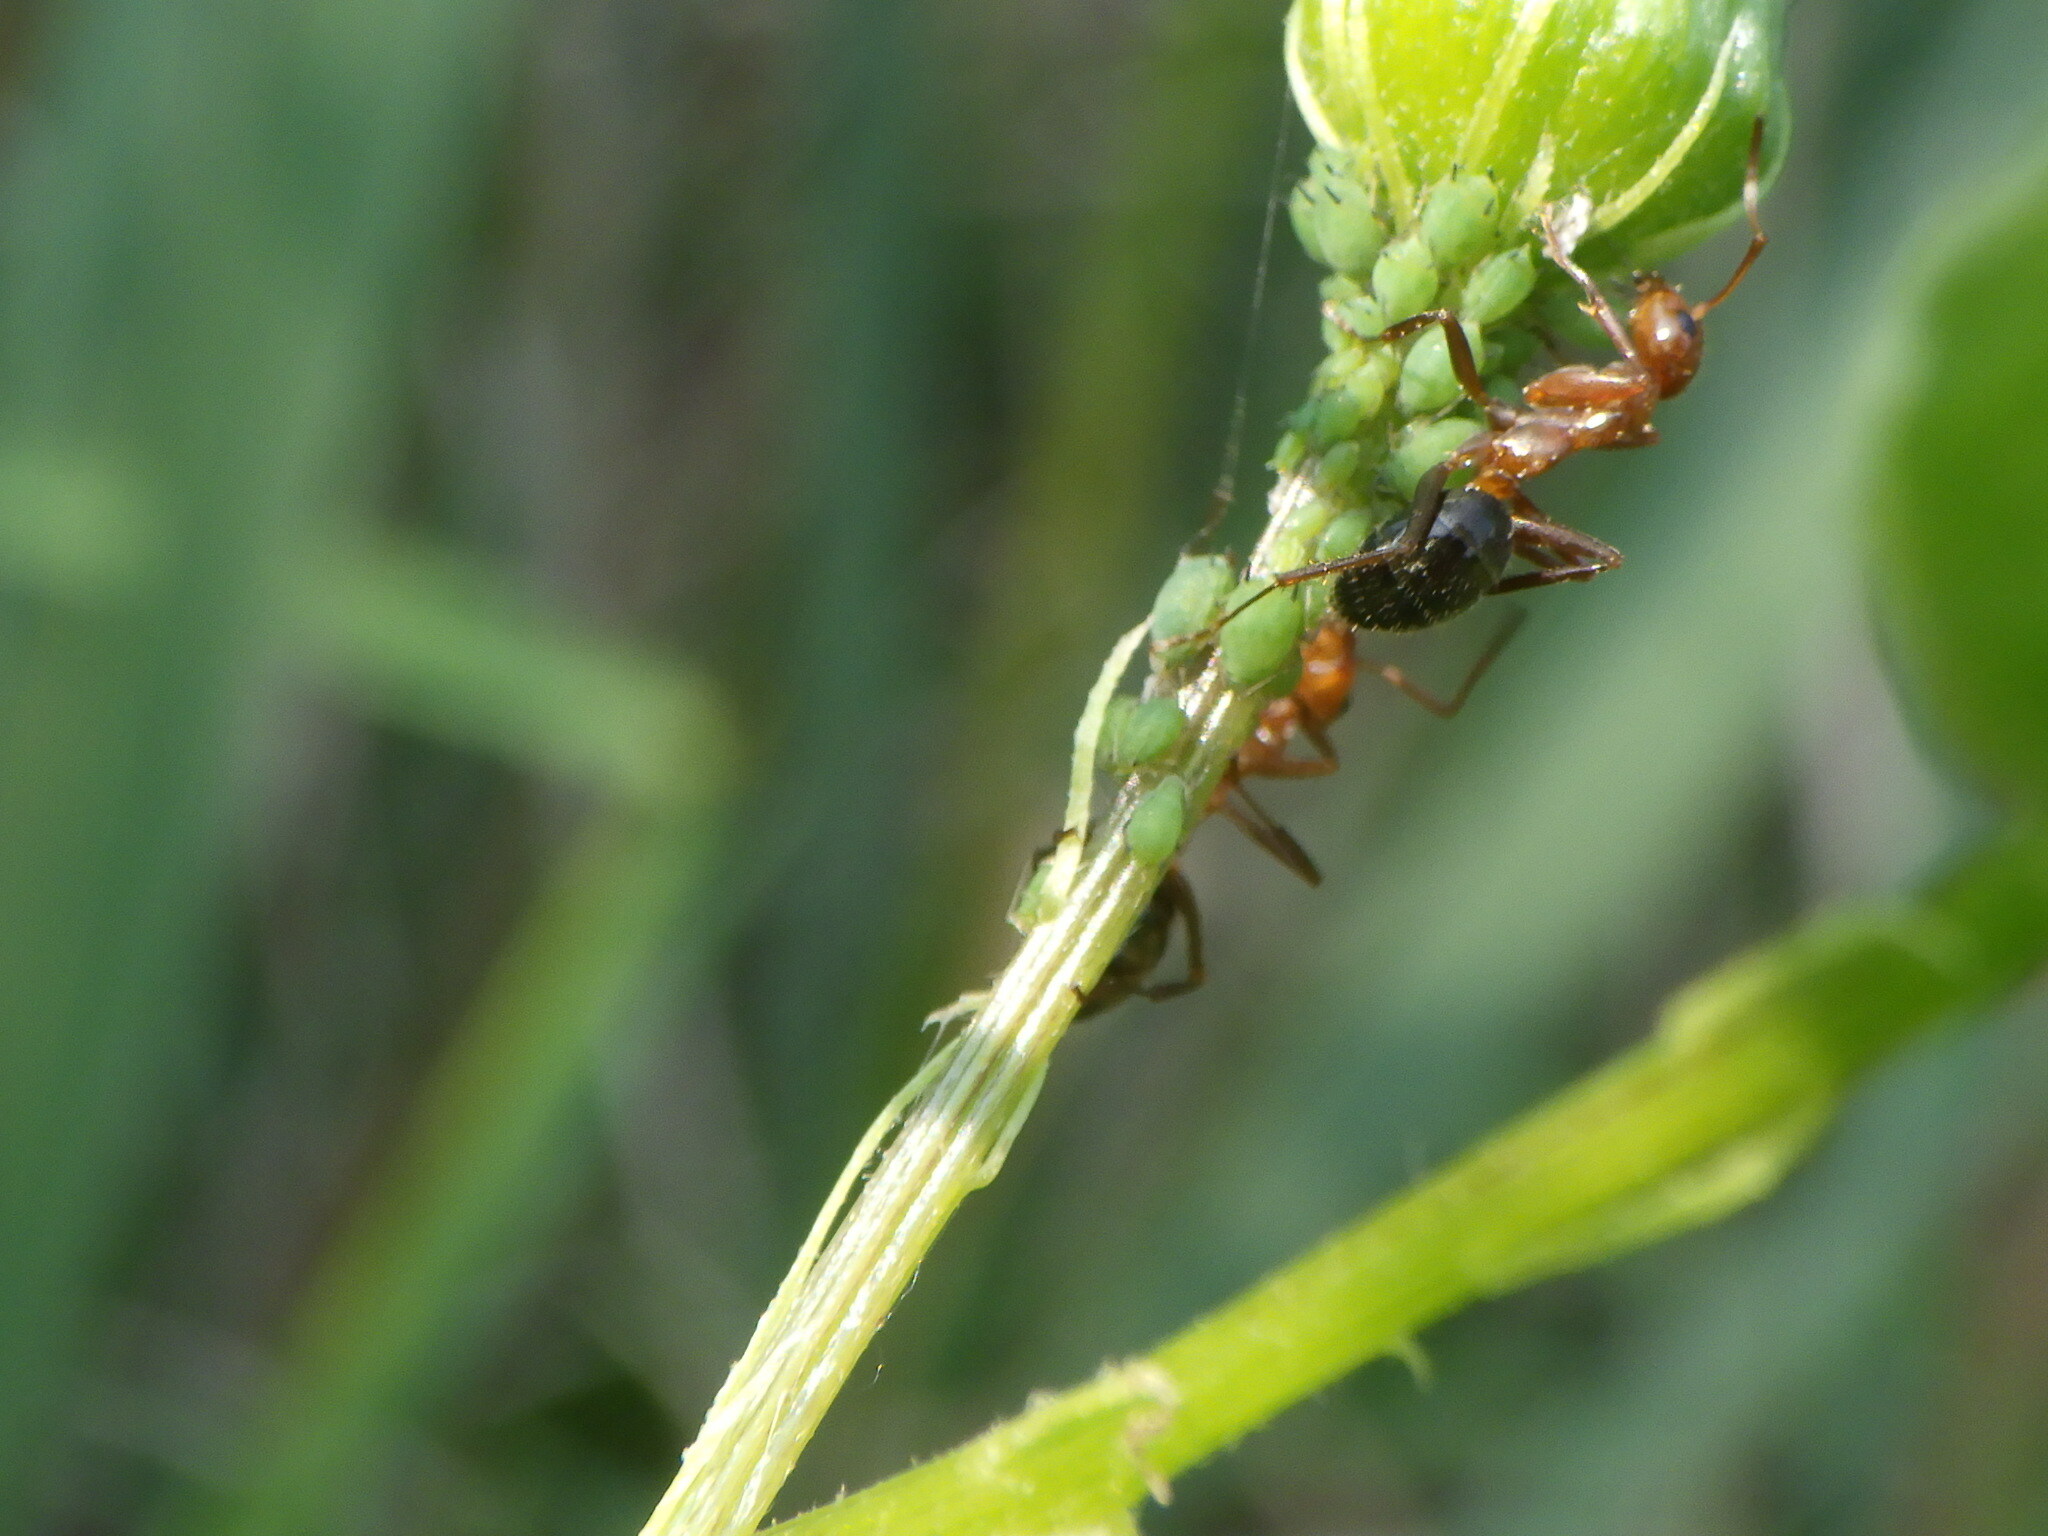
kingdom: Animalia
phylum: Arthropoda
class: Insecta
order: Hymenoptera
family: Formicidae
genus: Formica
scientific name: Formica
